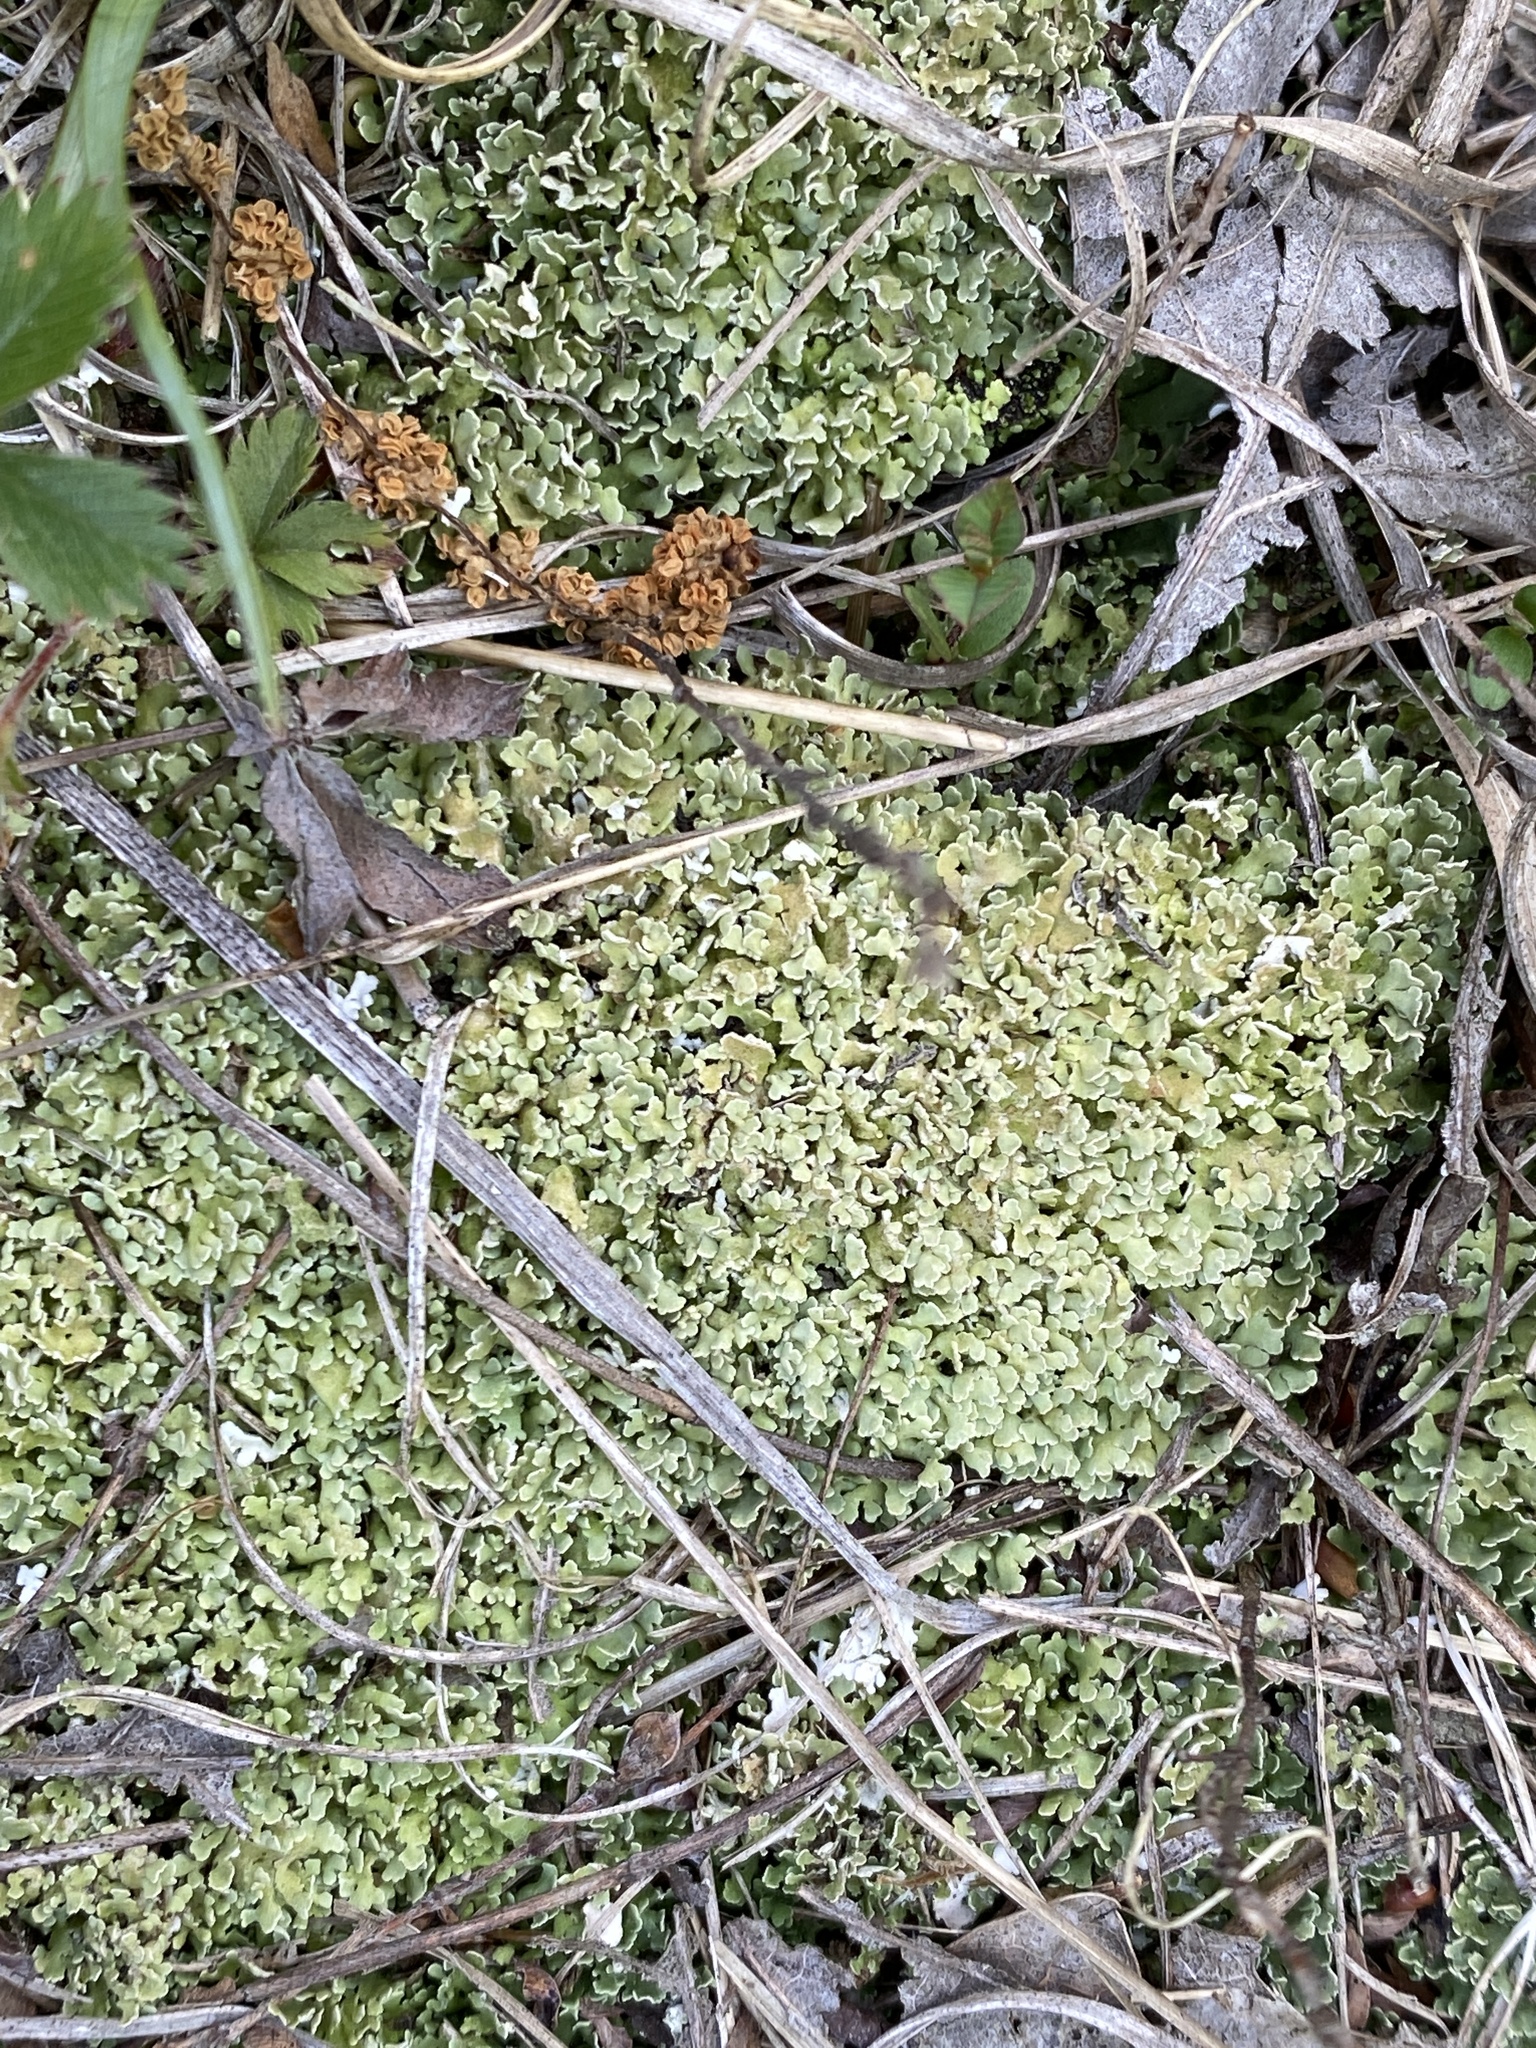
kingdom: Fungi
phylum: Ascomycota
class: Lecanoromycetes
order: Lecanorales
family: Cladoniaceae
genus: Cladonia
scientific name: Cladonia apodocarpa
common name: Stalkless cladonia
